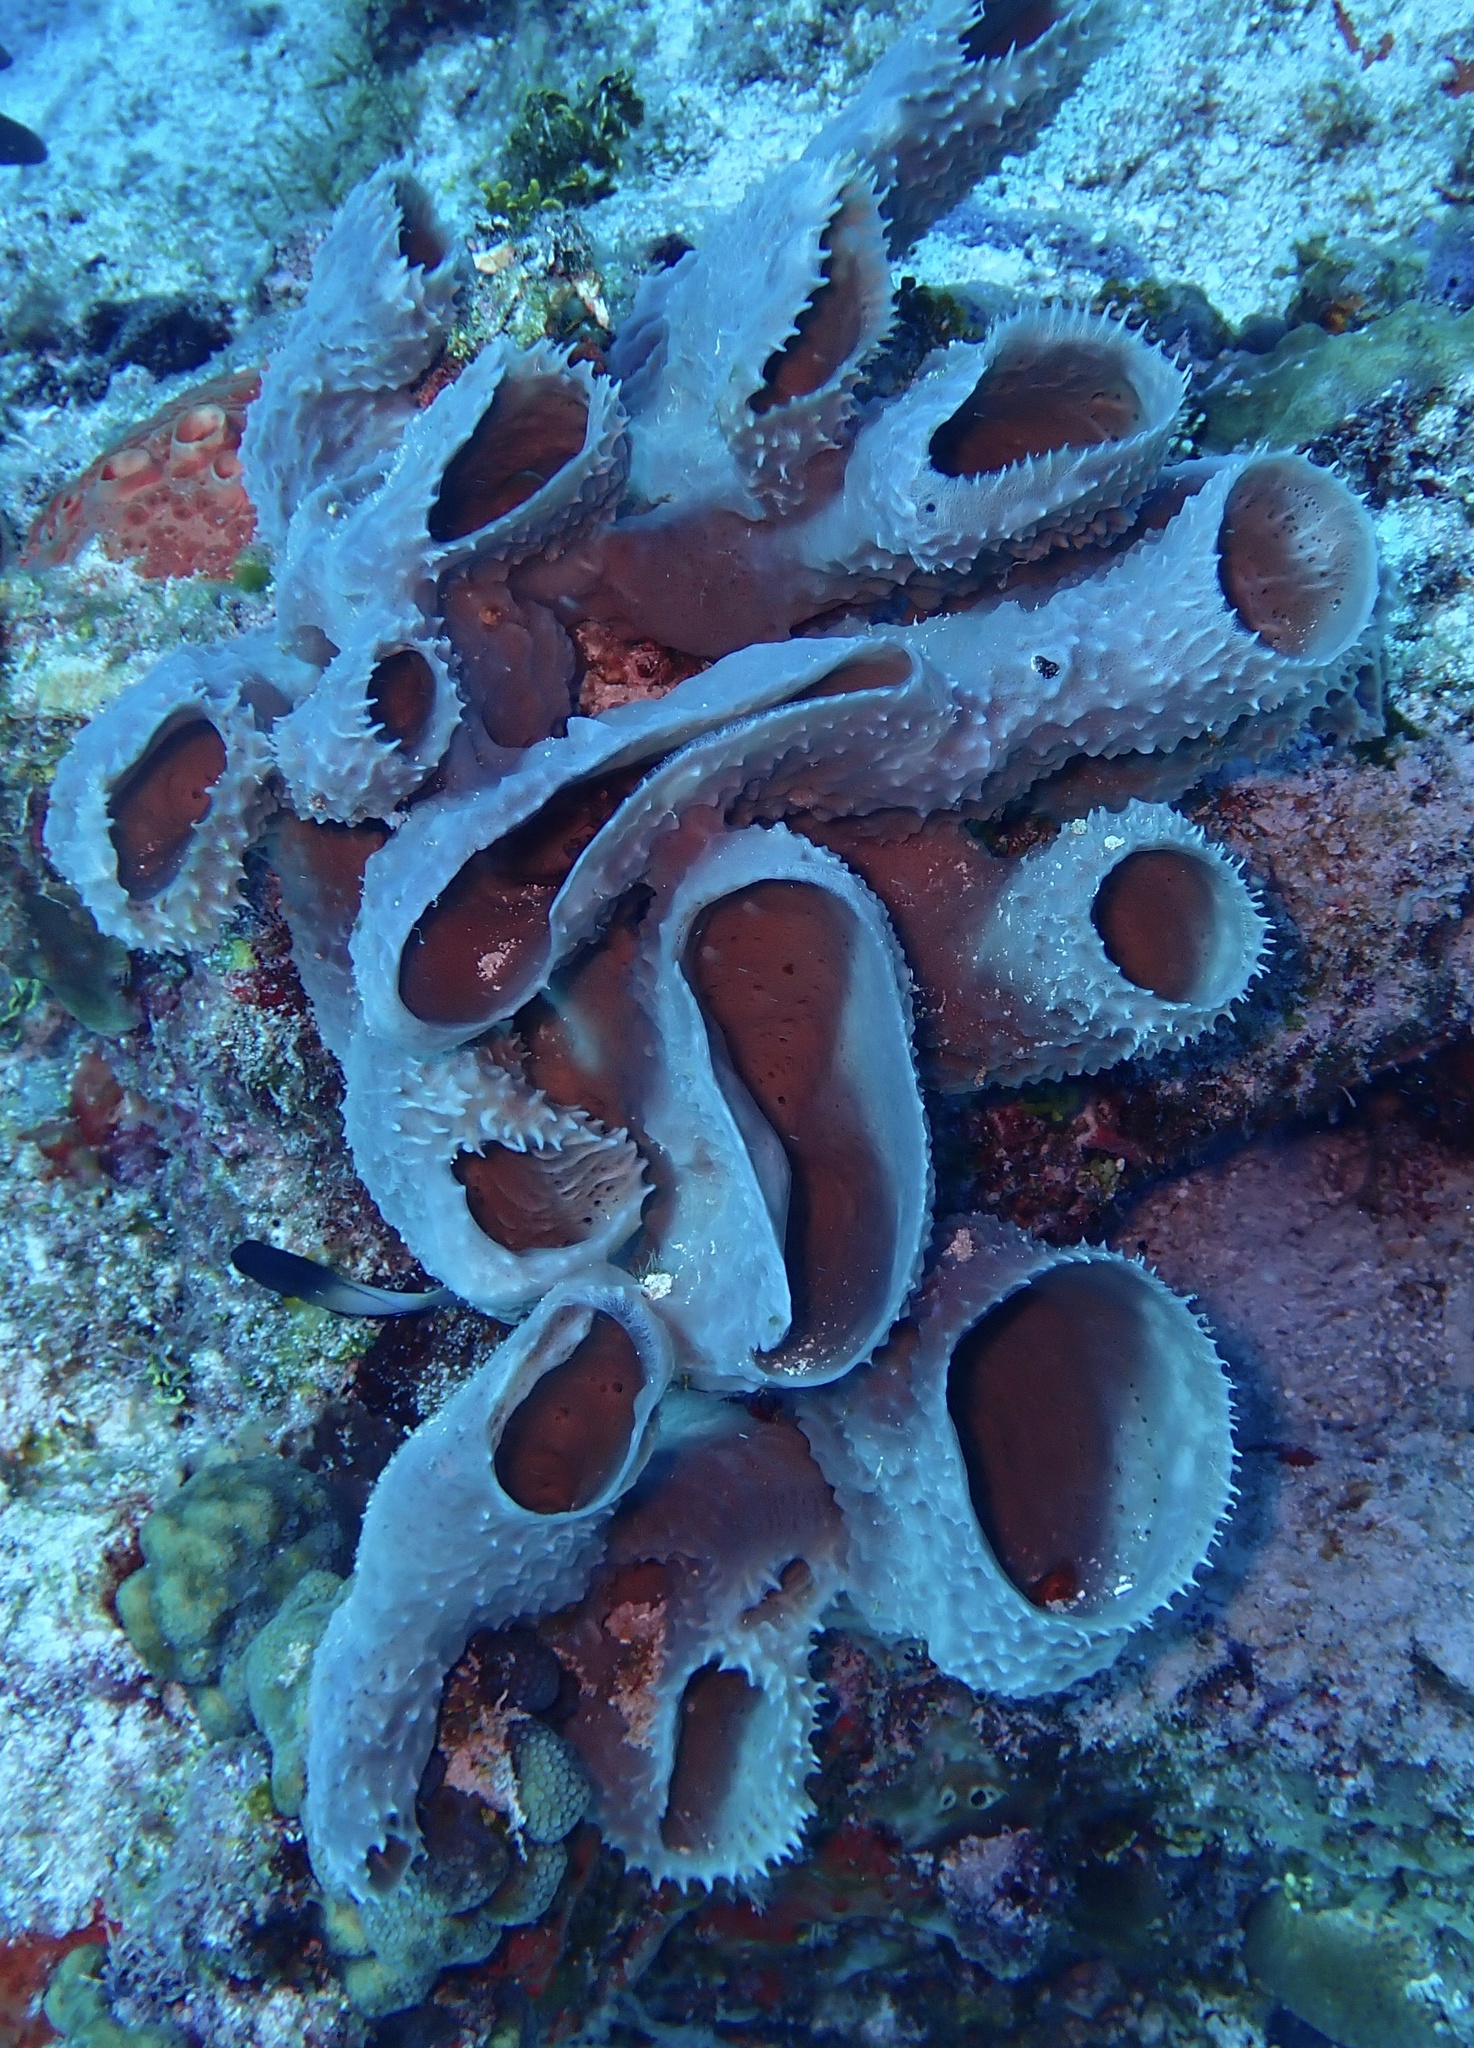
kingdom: Animalia
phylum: Porifera
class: Demospongiae
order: Haplosclerida
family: Callyspongiidae
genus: Callyspongia
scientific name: Callyspongia aculeata
